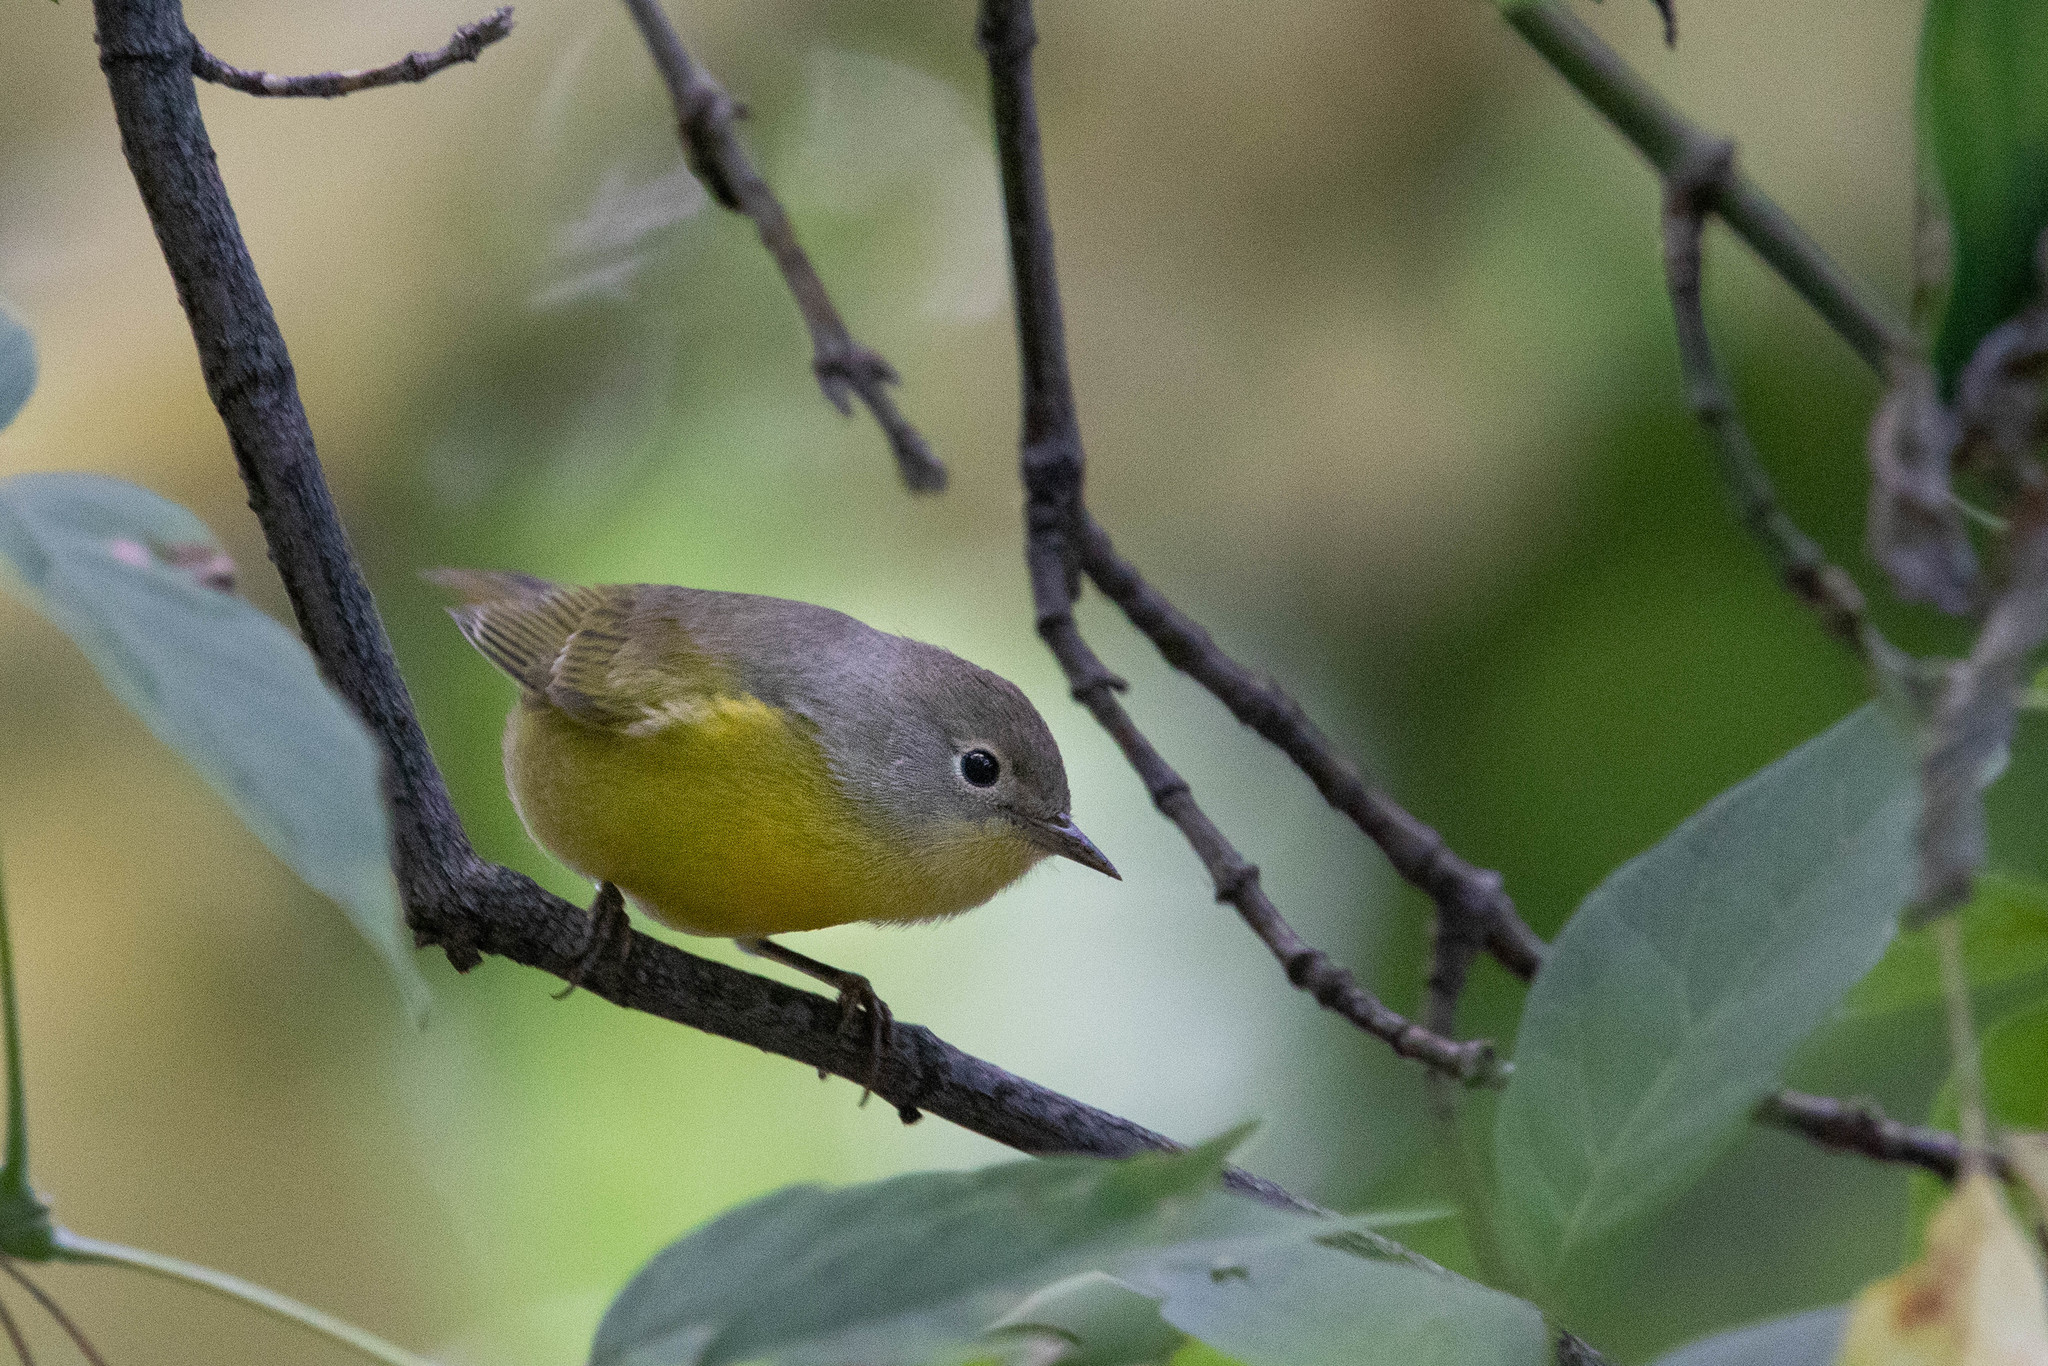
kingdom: Animalia
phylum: Chordata
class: Aves
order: Passeriformes
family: Parulidae
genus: Leiothlypis
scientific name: Leiothlypis ruficapilla
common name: Nashville warbler
